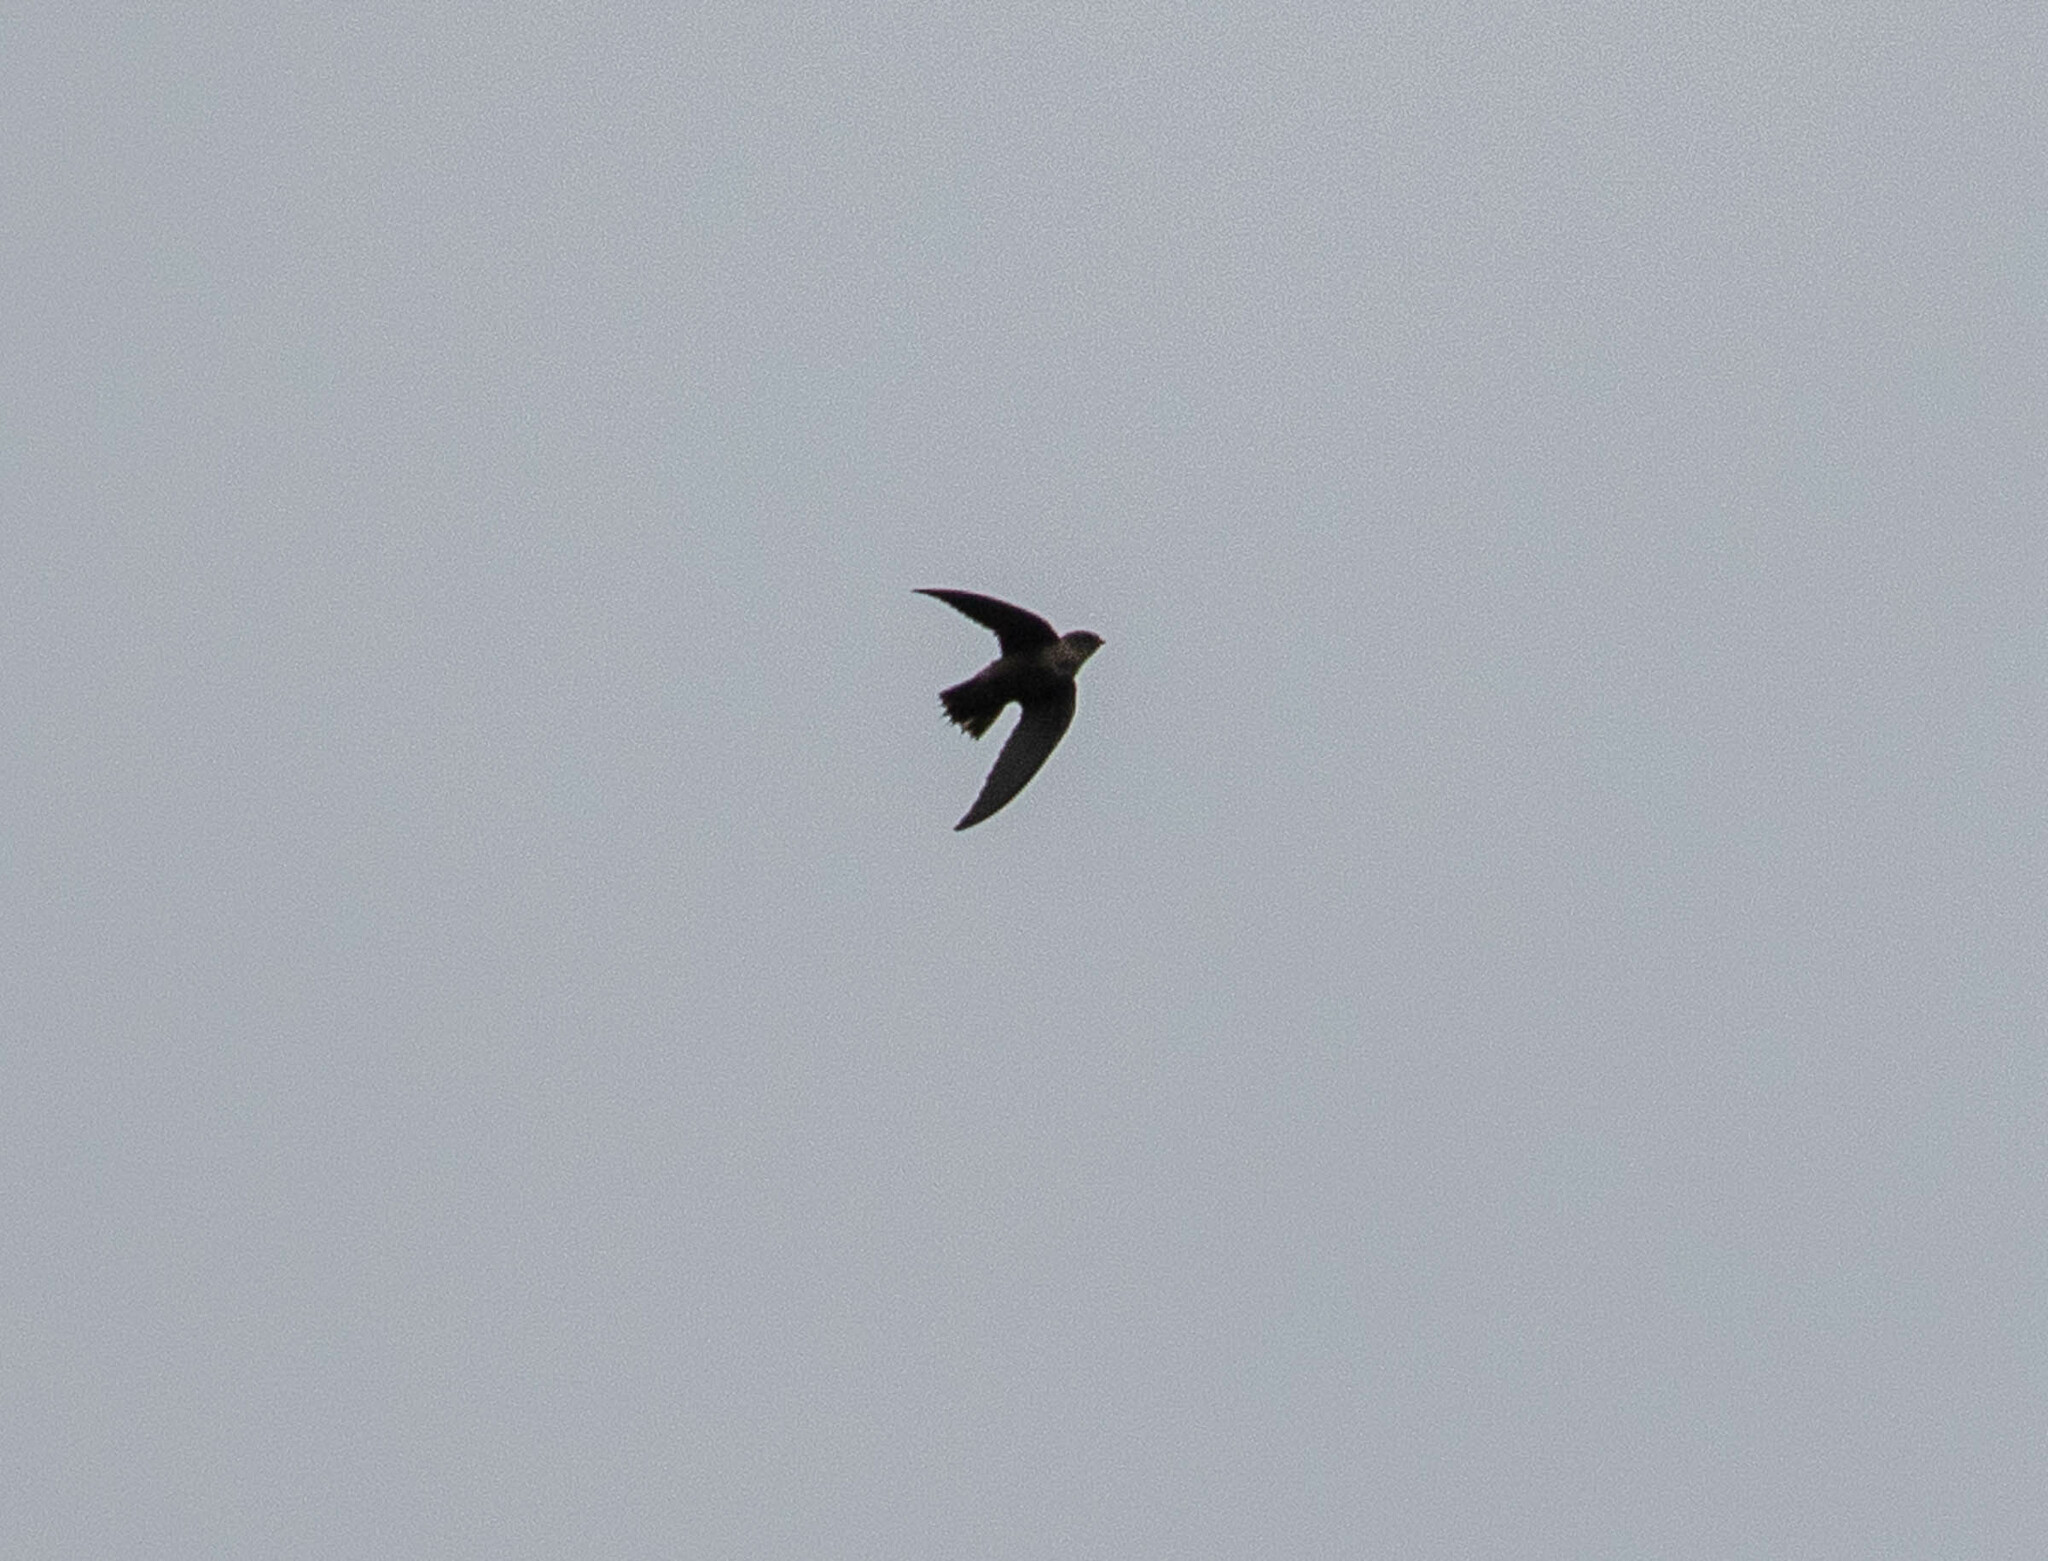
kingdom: Animalia
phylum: Chordata
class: Aves
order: Apodiformes
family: Apodidae
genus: Chaetura
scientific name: Chaetura pelagica
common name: Chimney swift
